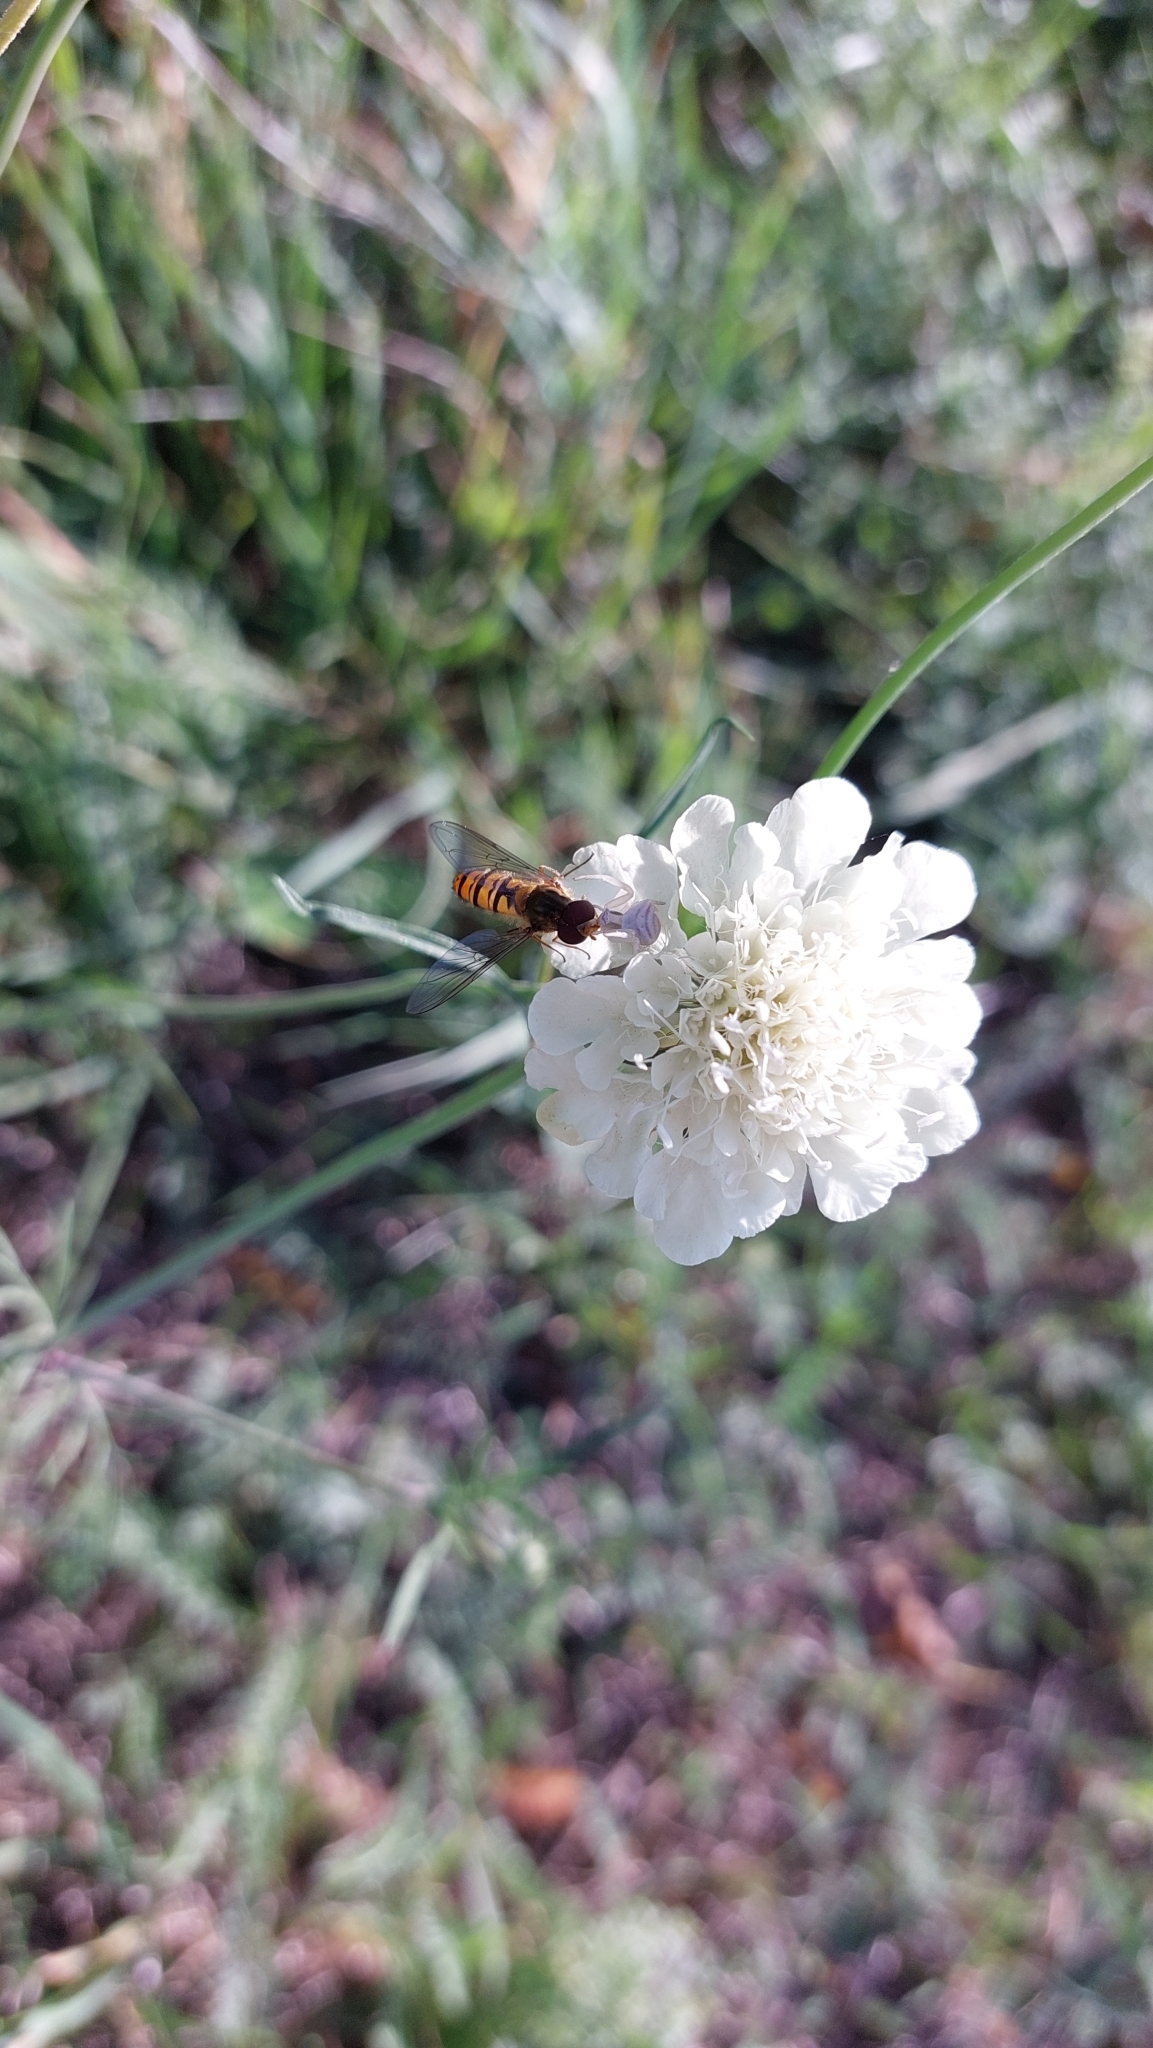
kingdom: Animalia
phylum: Arthropoda
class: Insecta
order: Diptera
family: Syrphidae
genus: Episyrphus
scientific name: Episyrphus balteatus
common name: Marmalade hoverfly
